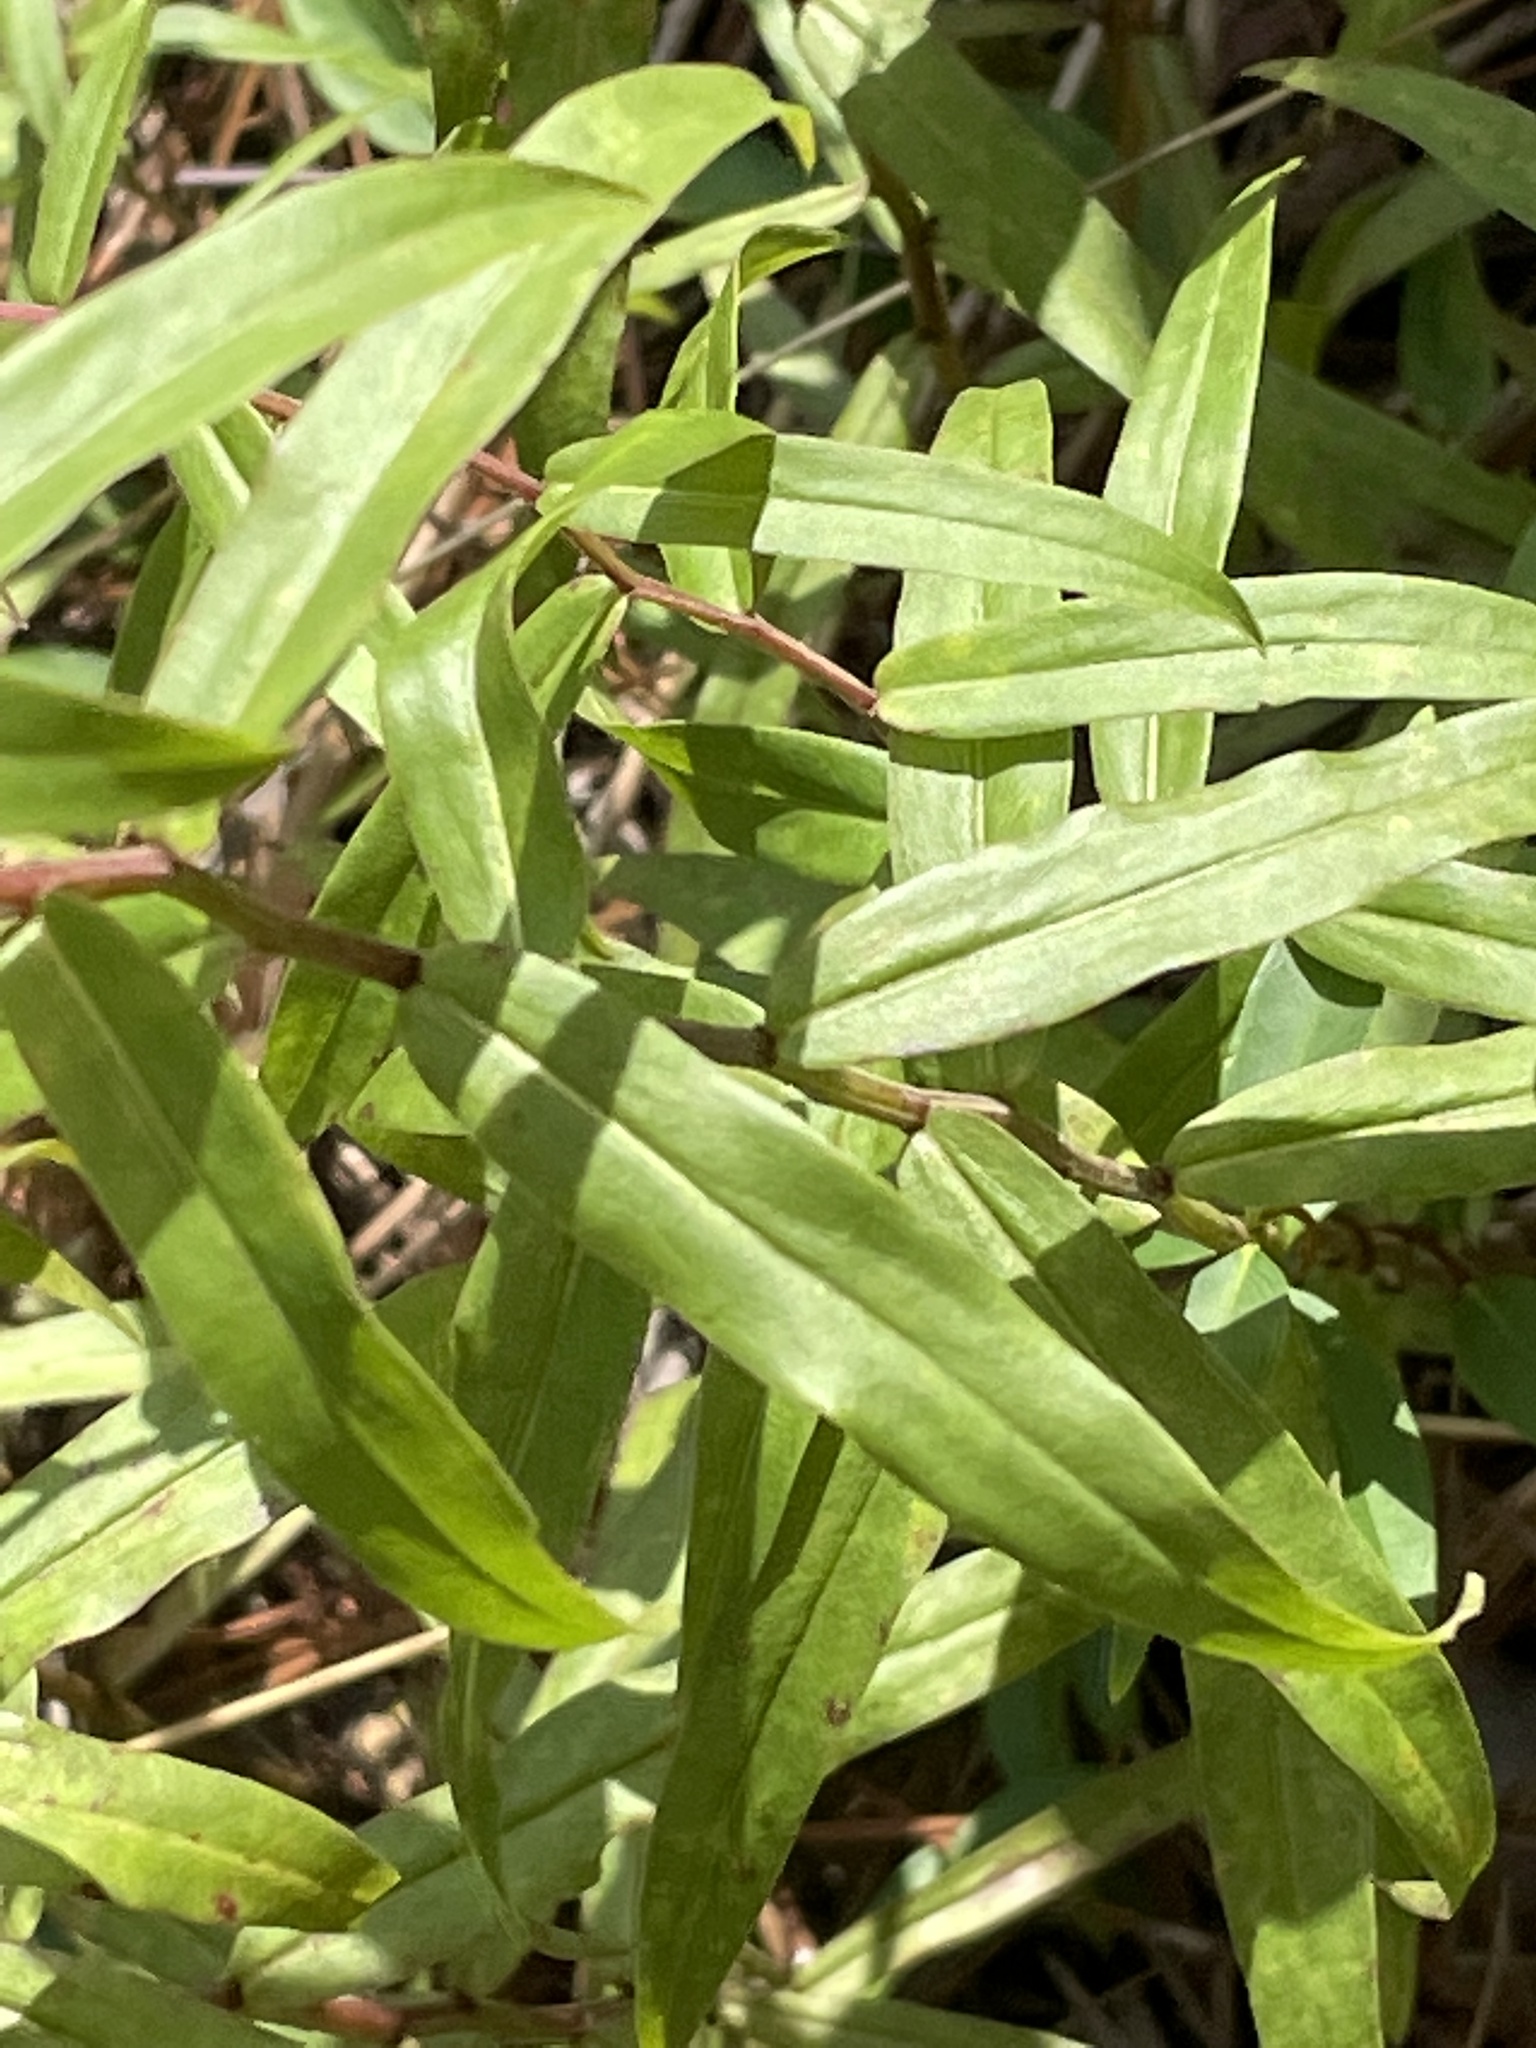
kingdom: Plantae
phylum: Tracheophyta
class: Magnoliopsida
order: Asterales
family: Asteraceae
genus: Solidago
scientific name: Solidago odora
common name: Anise-scented goldenrod
